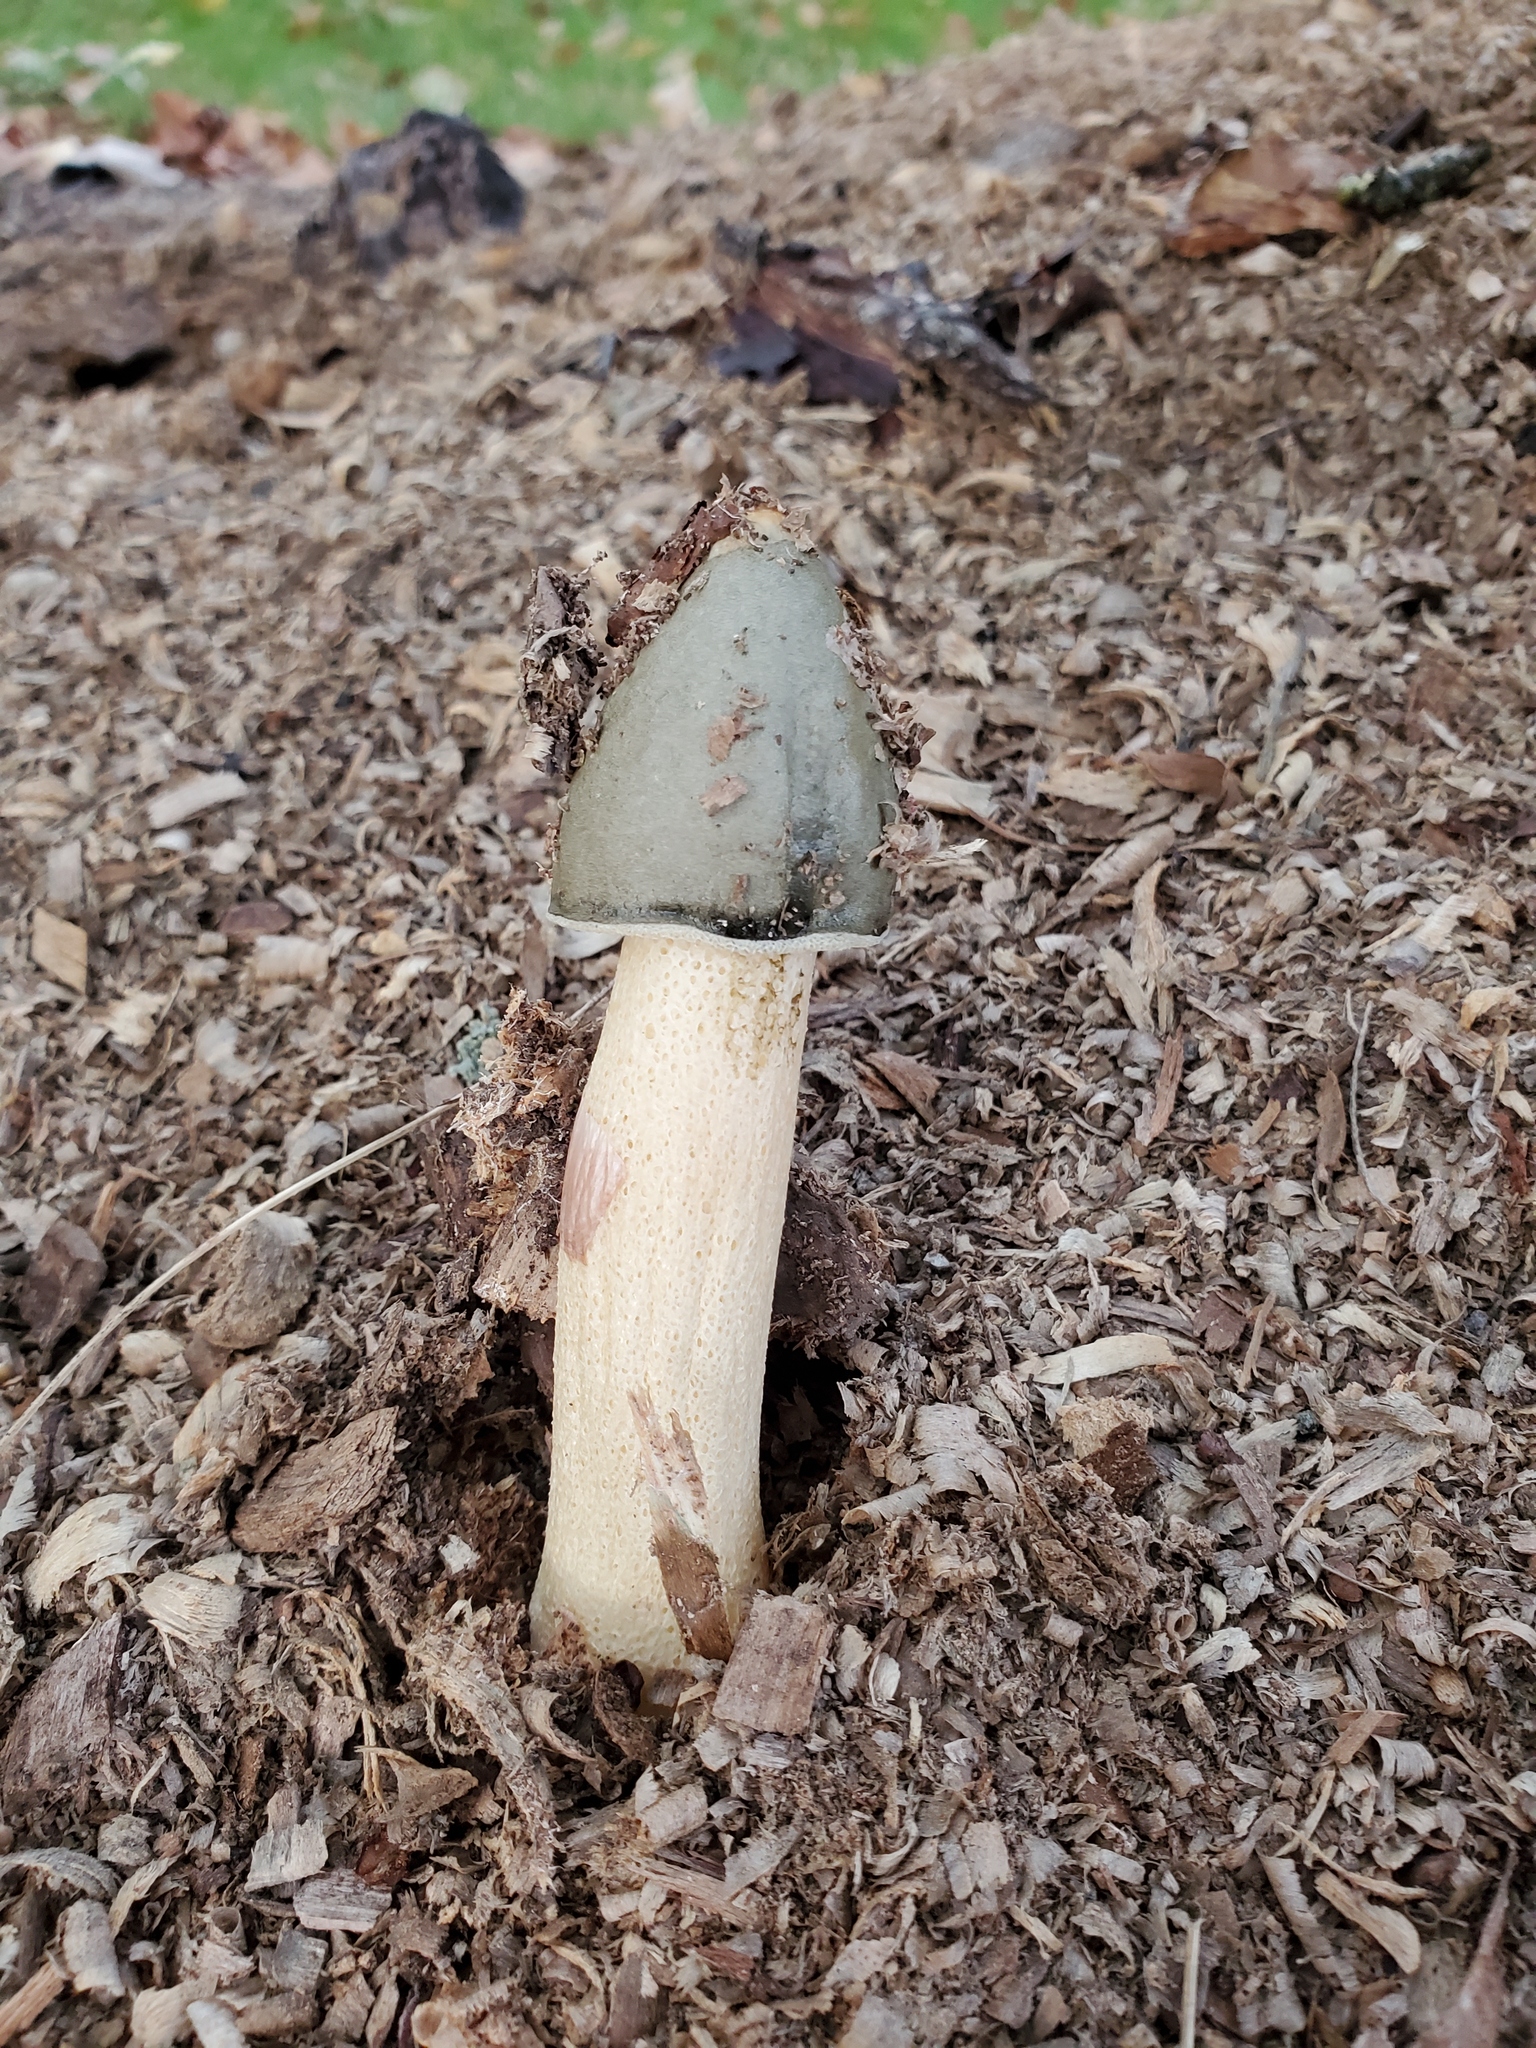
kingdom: Fungi
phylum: Basidiomycota
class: Agaricomycetes
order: Phallales
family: Phallaceae
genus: Phallus
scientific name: Phallus ravenelii
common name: Ravenel's stinkhorn
